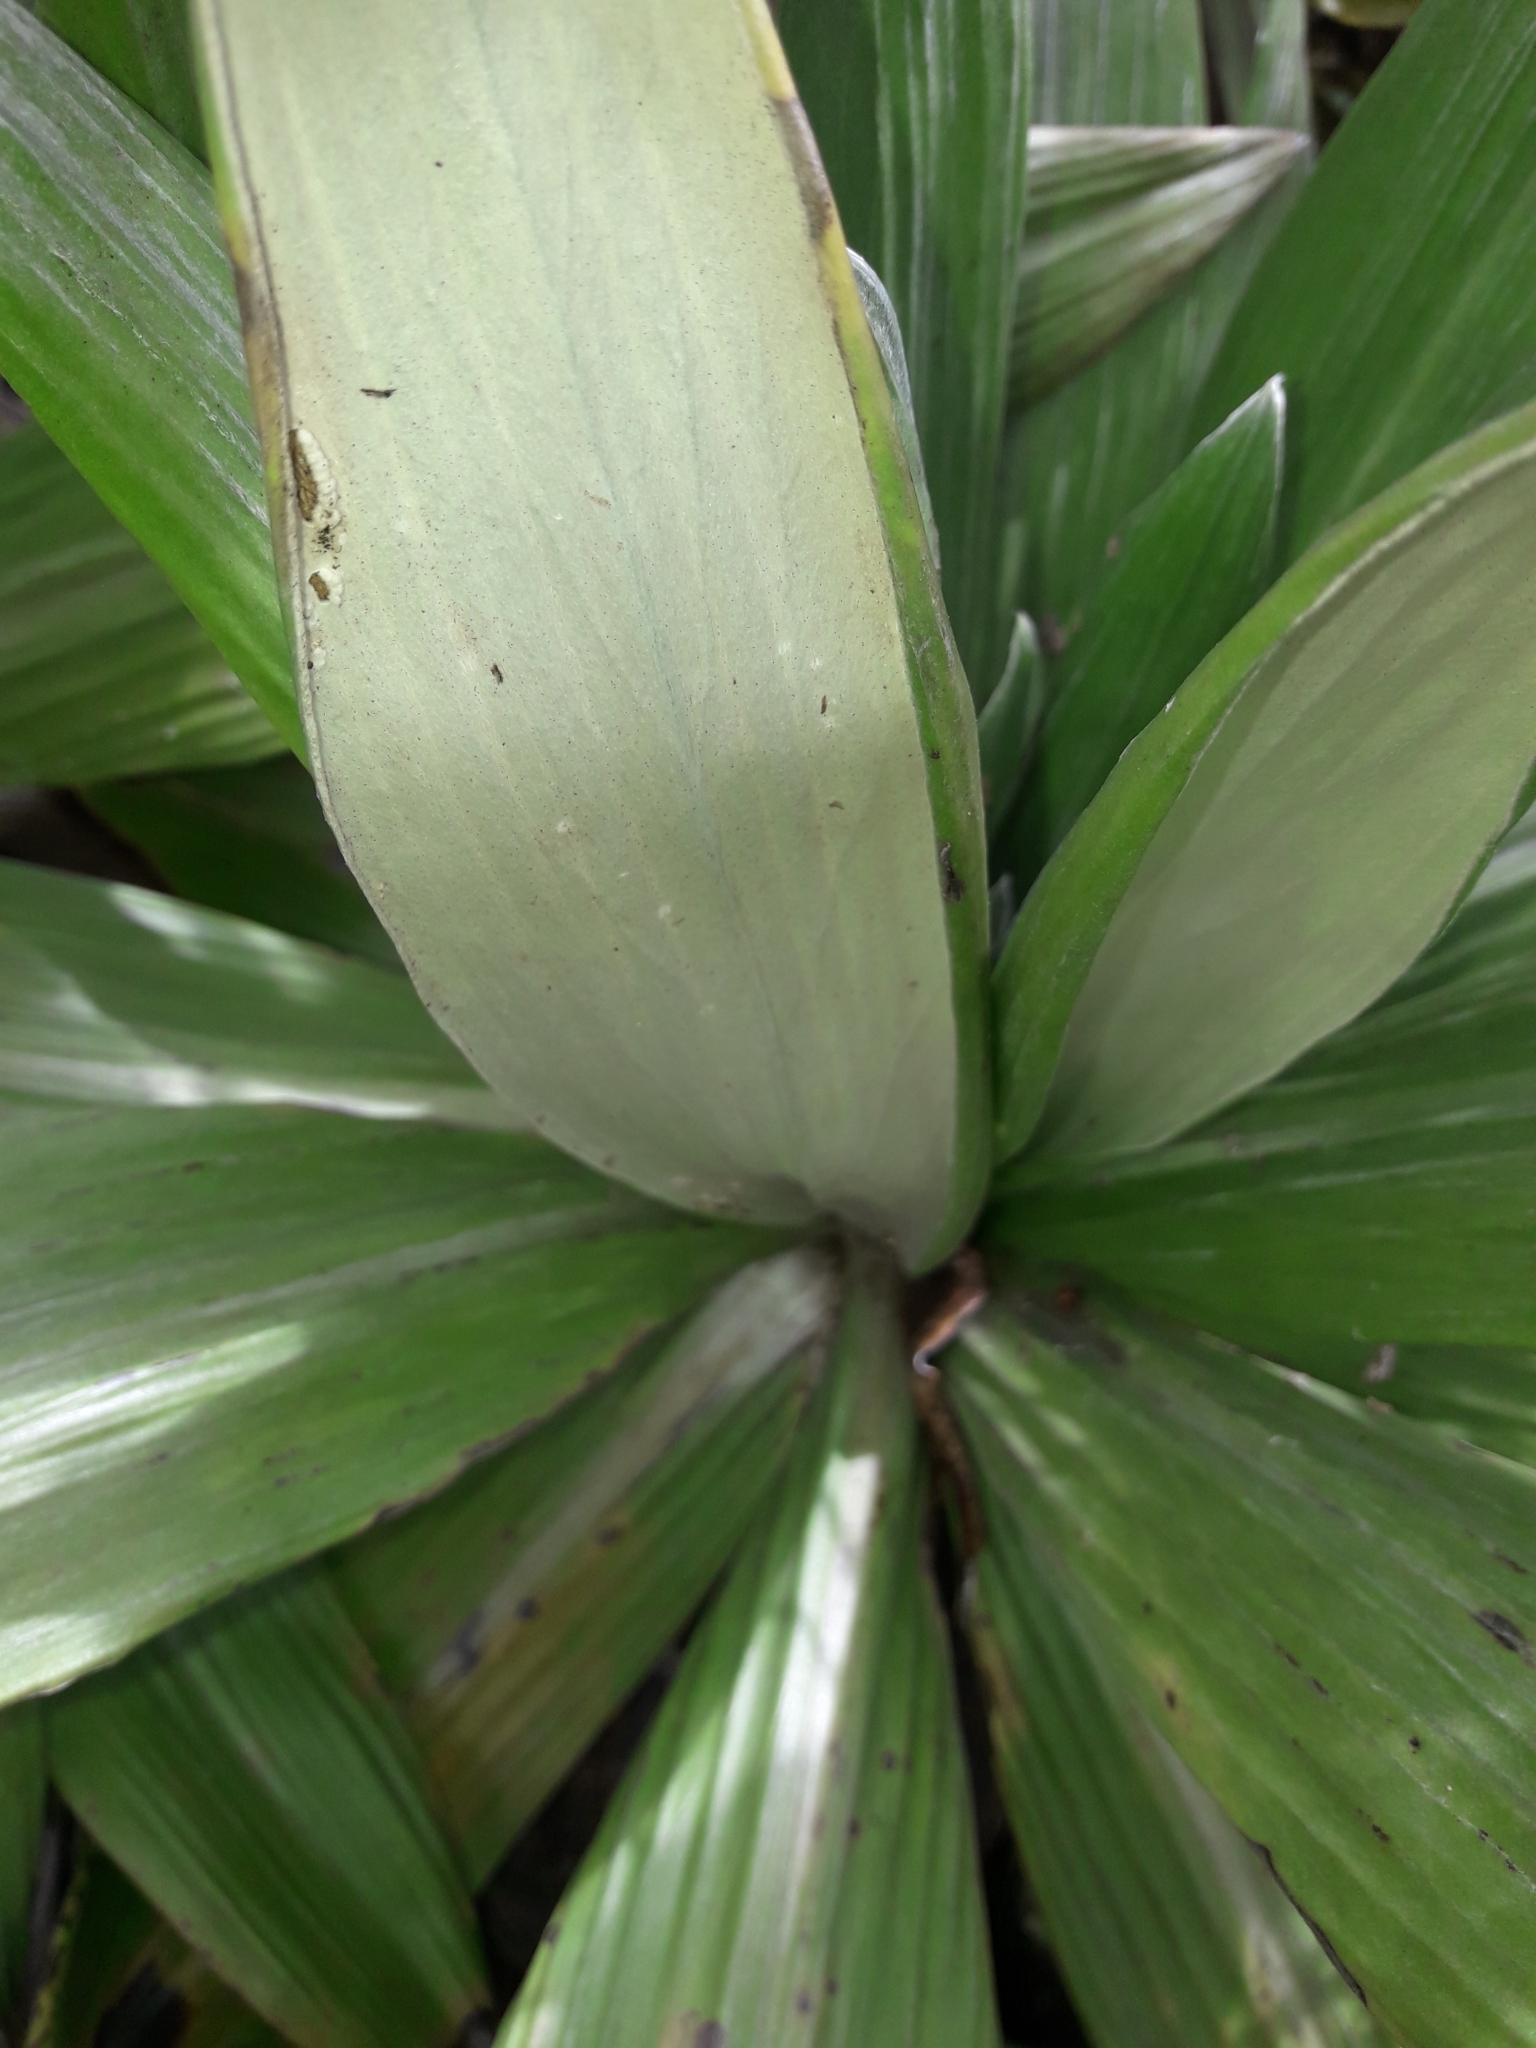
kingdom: Plantae
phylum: Tracheophyta
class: Magnoliopsida
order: Asterales
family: Asteraceae
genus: Celmisia
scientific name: Celmisia semicordata
